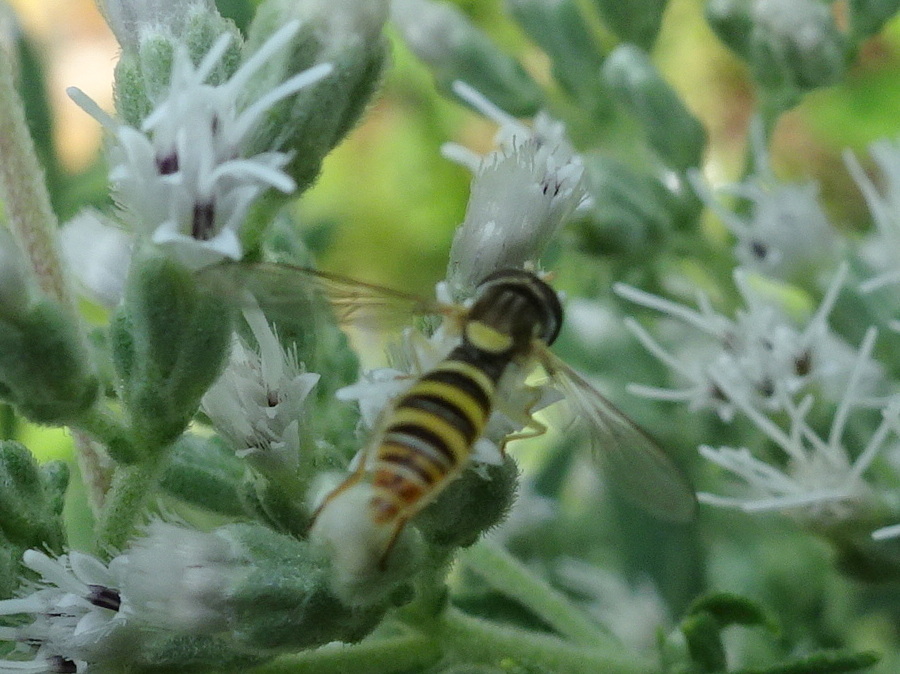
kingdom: Animalia
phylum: Arthropoda
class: Insecta
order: Diptera
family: Syrphidae
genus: Sphaerophoria
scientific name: Sphaerophoria contigua
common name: Tufted globetail
